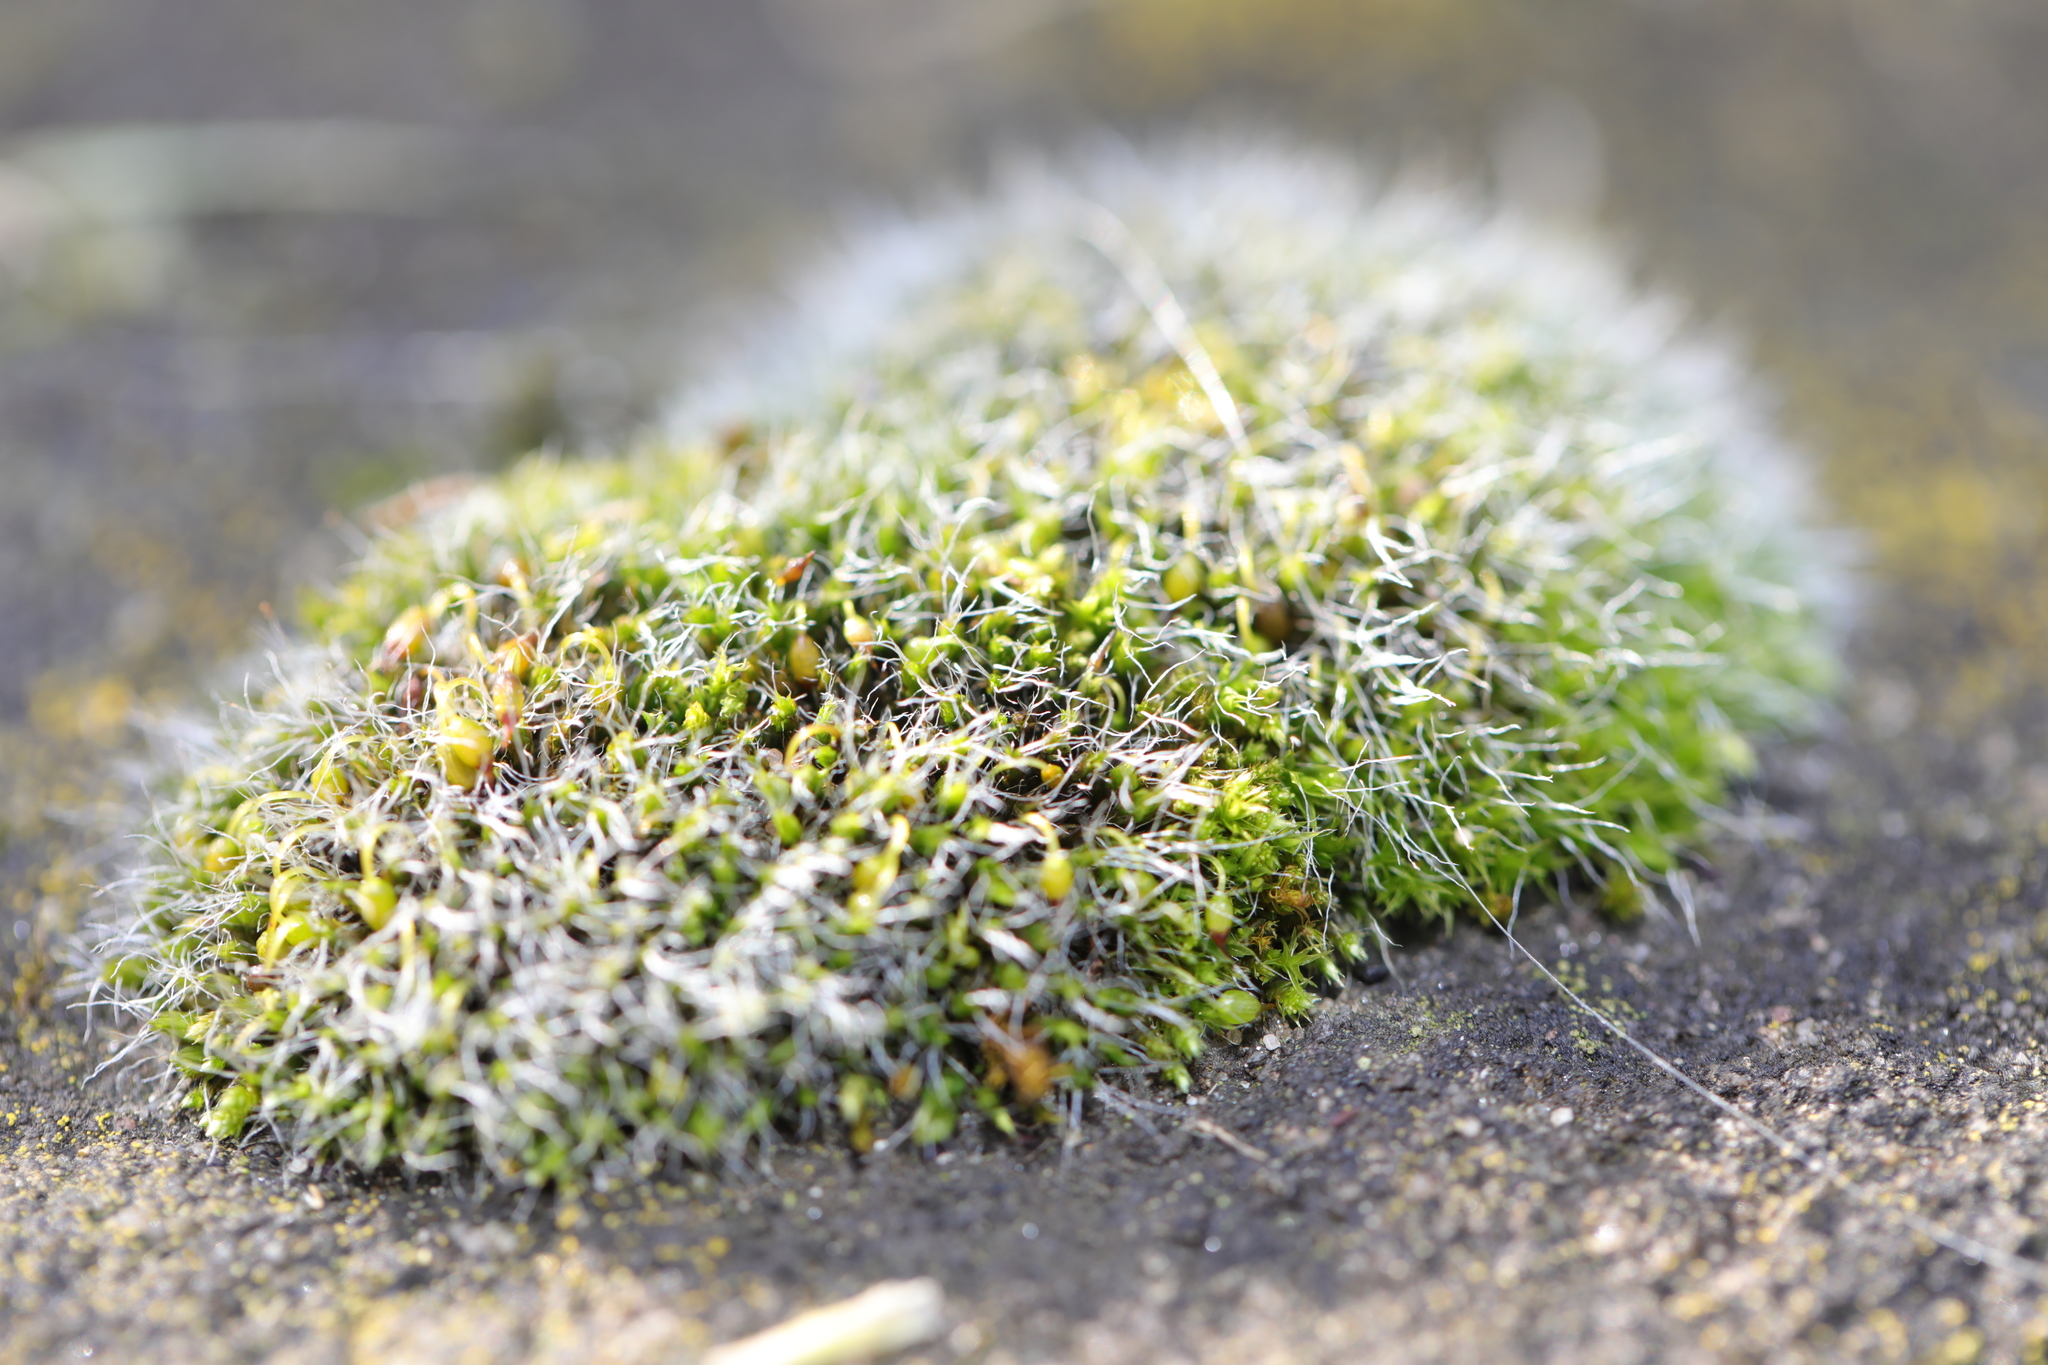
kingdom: Plantae
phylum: Bryophyta
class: Bryopsida
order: Grimmiales
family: Grimmiaceae
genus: Grimmia
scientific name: Grimmia pulvinata
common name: Grey-cushioned grimmia
